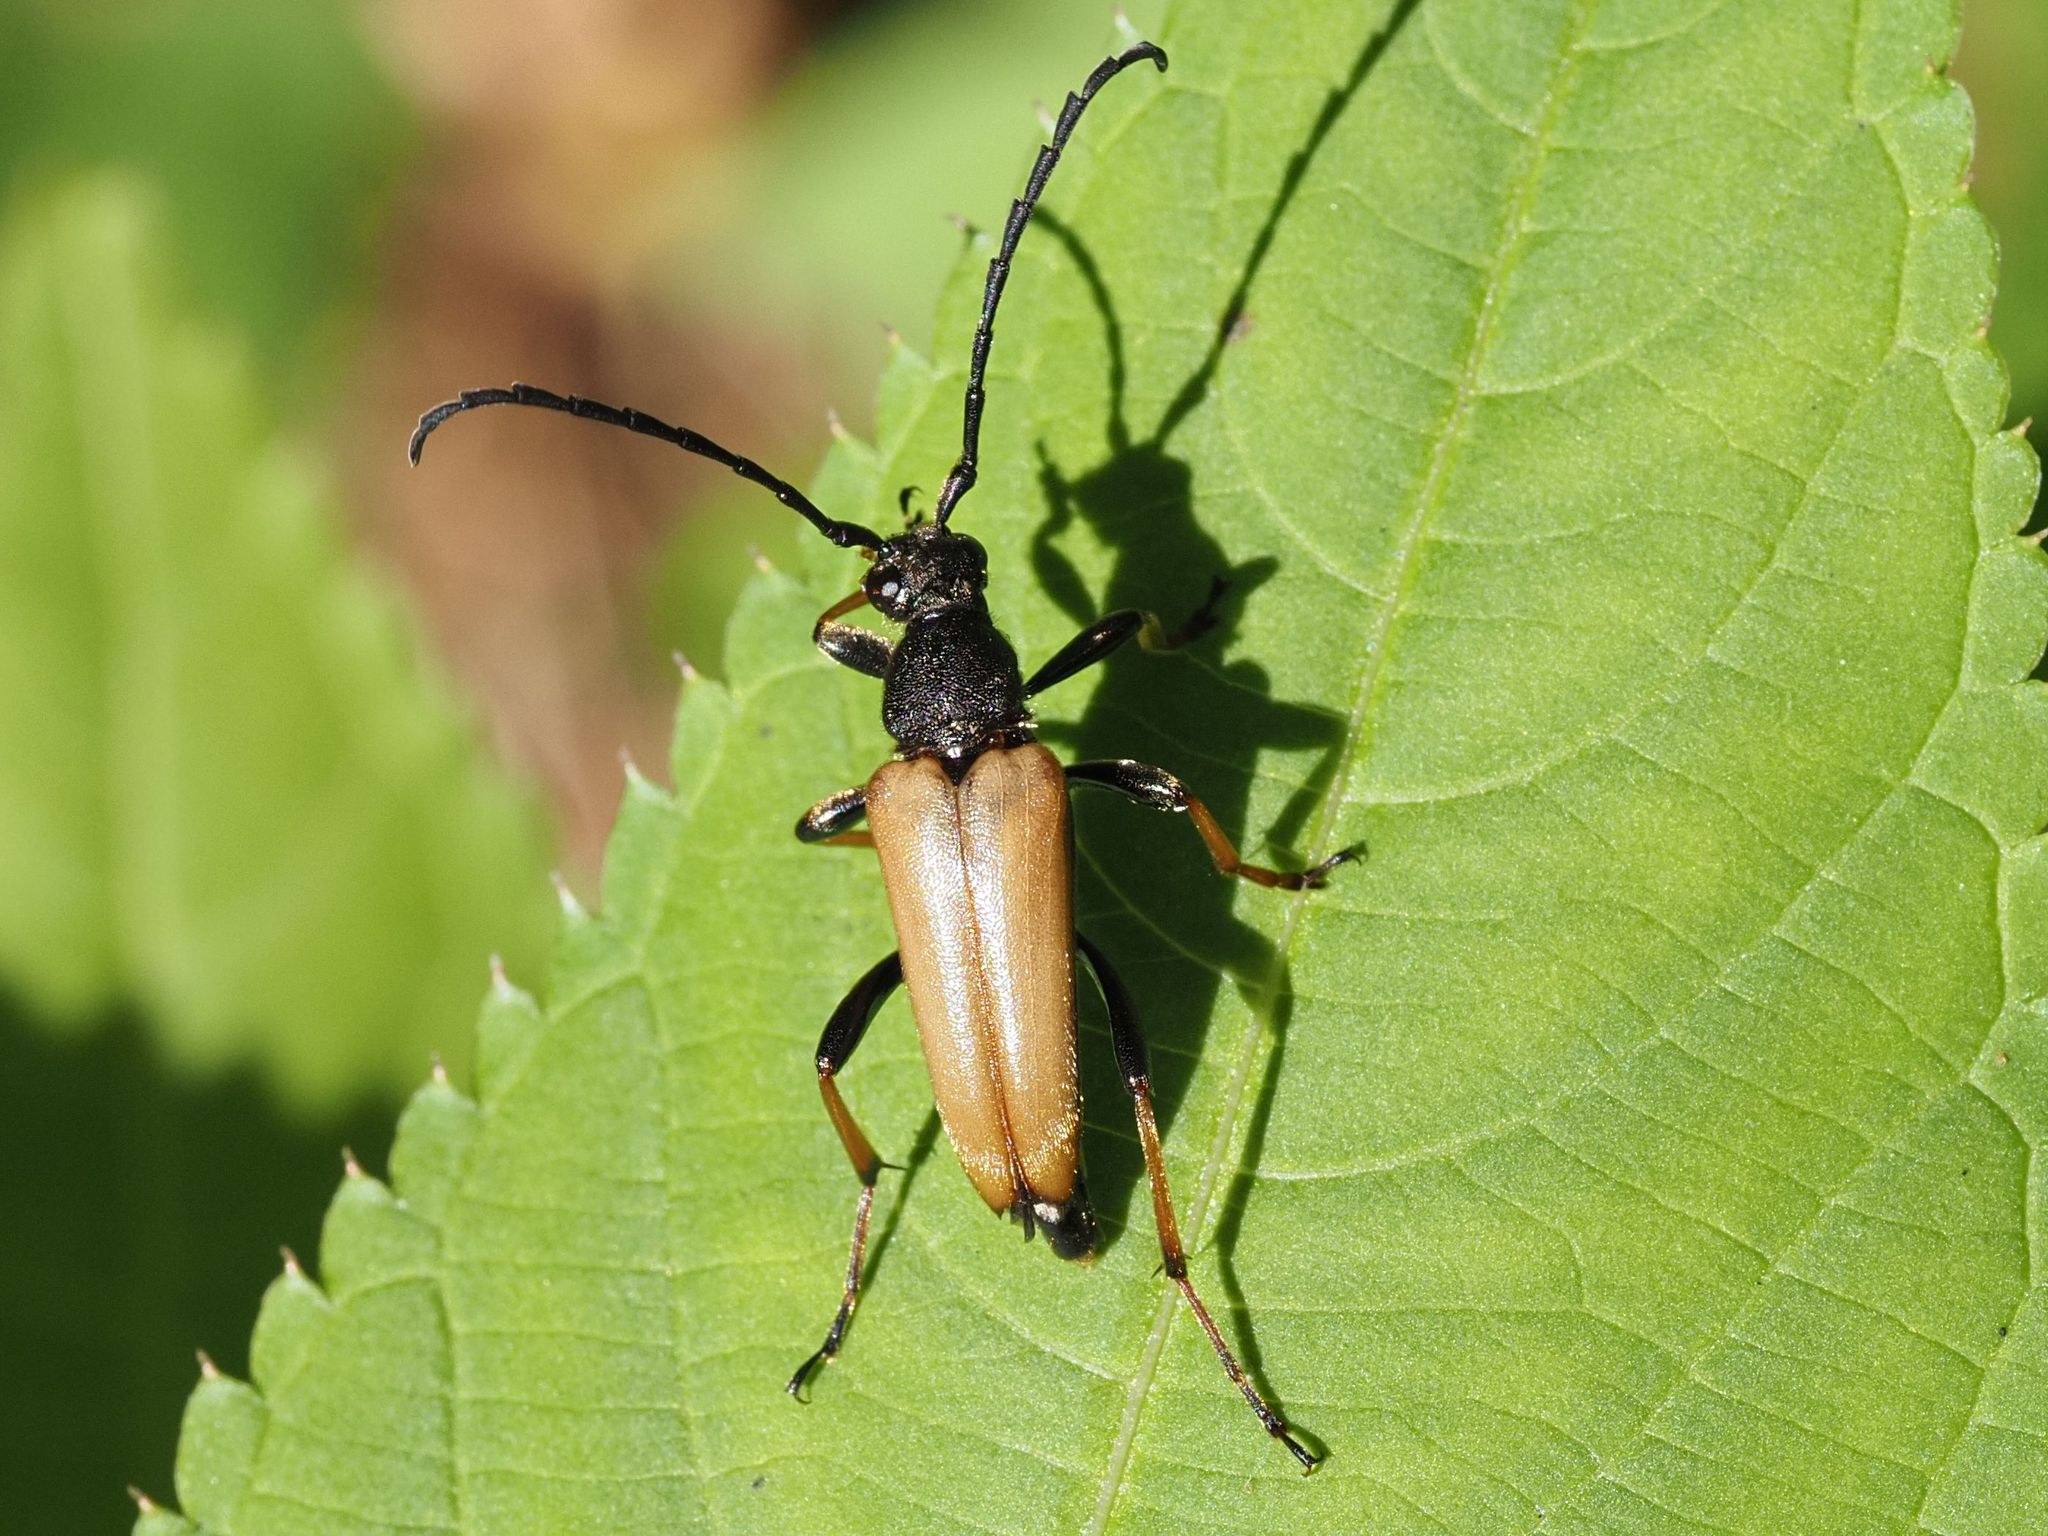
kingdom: Animalia
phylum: Arthropoda
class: Insecta
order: Coleoptera
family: Cerambycidae
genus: Stictoleptura
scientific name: Stictoleptura rubra
